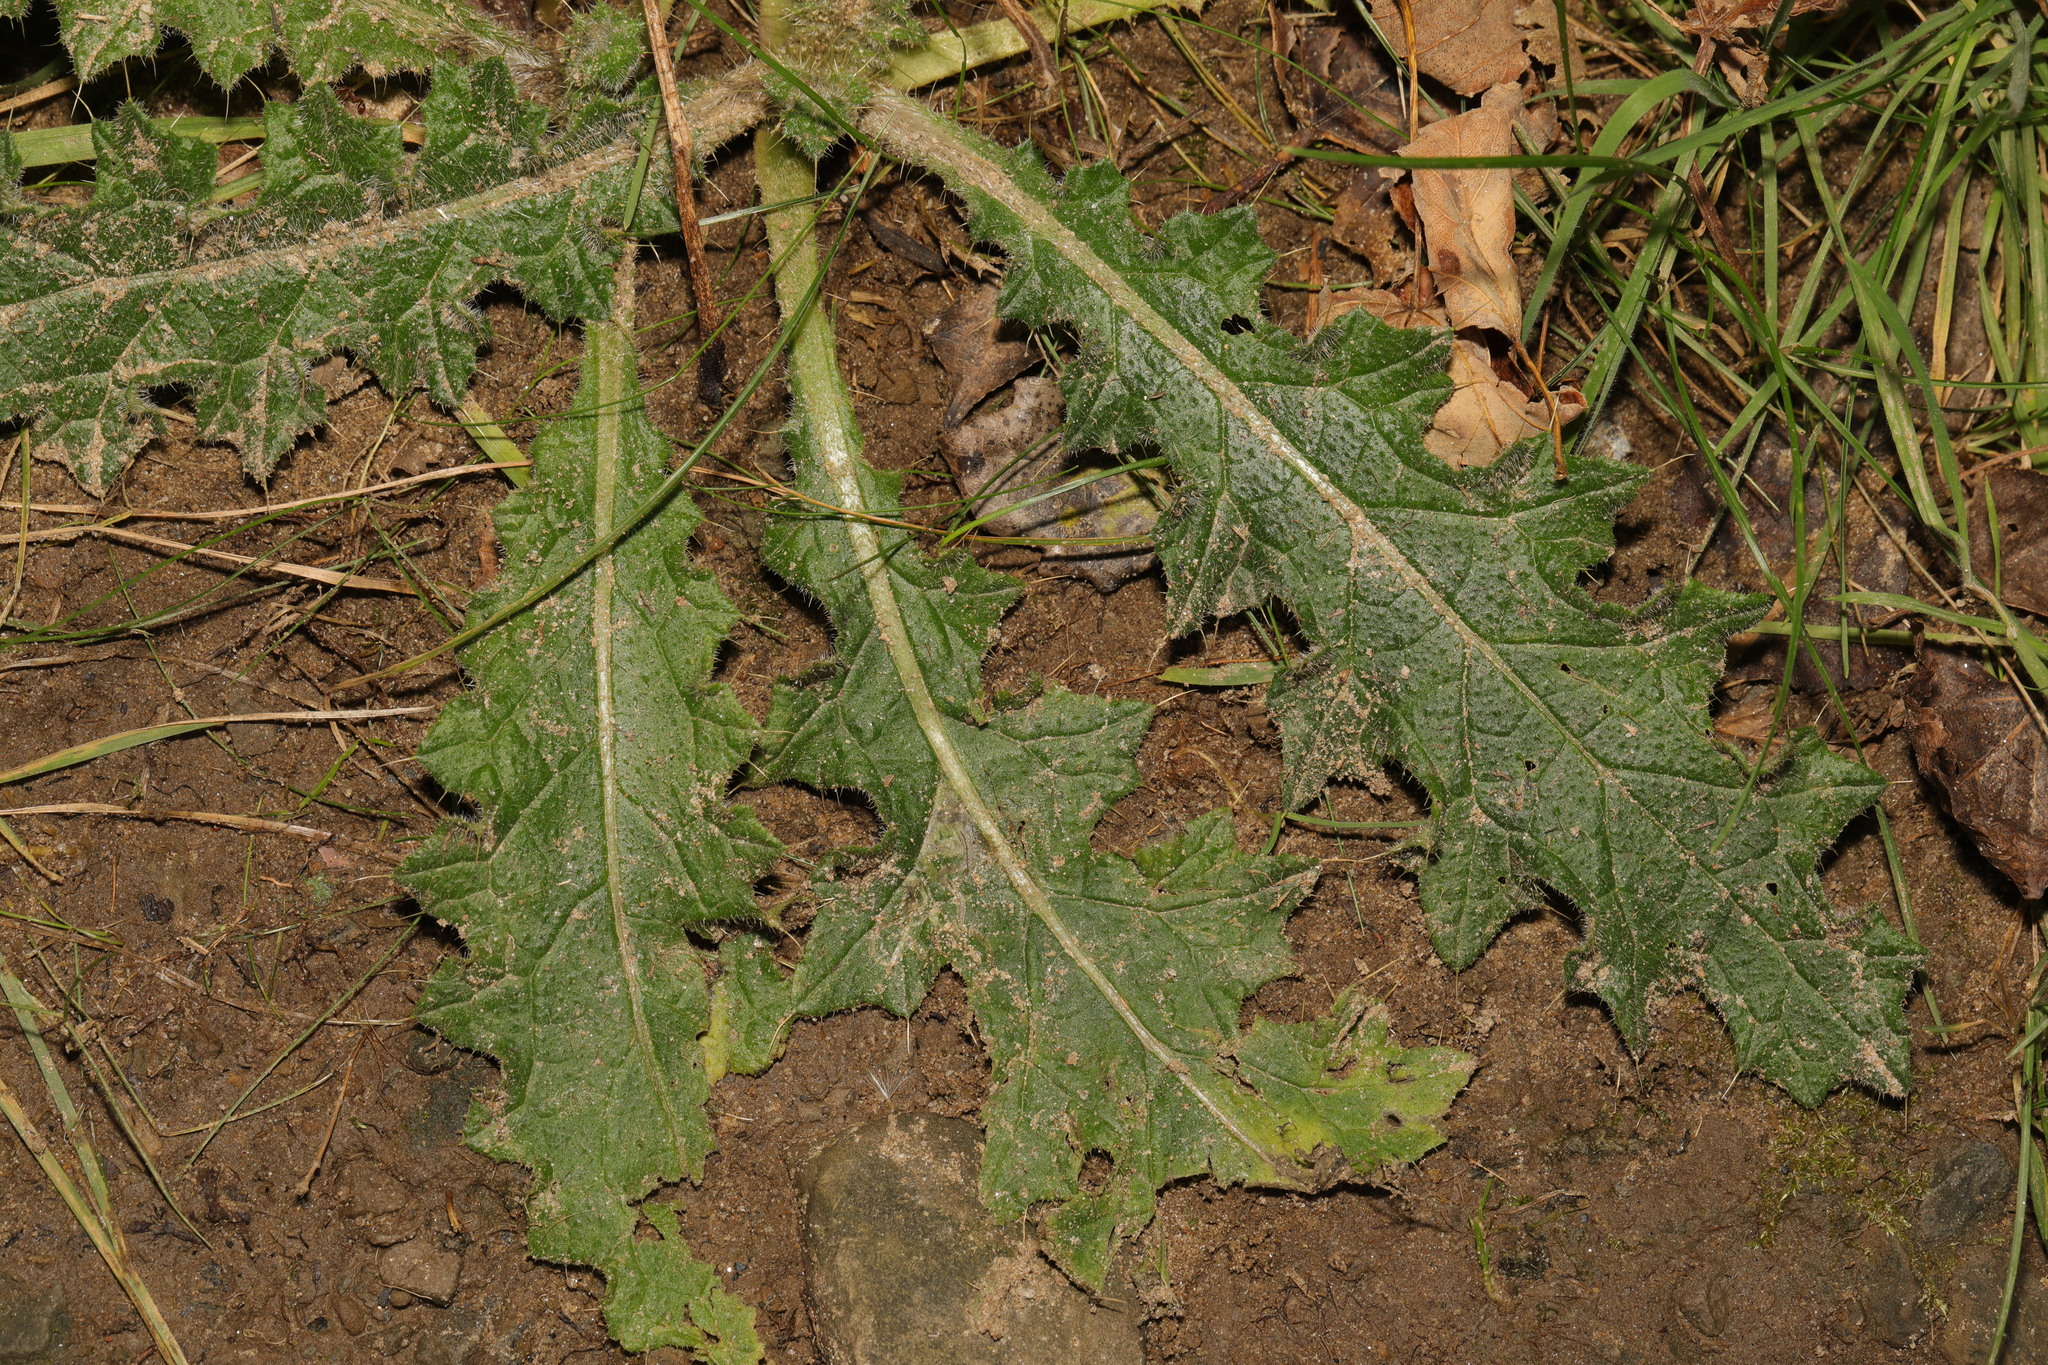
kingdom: Plantae
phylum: Tracheophyta
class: Magnoliopsida
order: Asterales
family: Asteraceae
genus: Cirsium
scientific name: Cirsium vulgare
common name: Bull thistle
